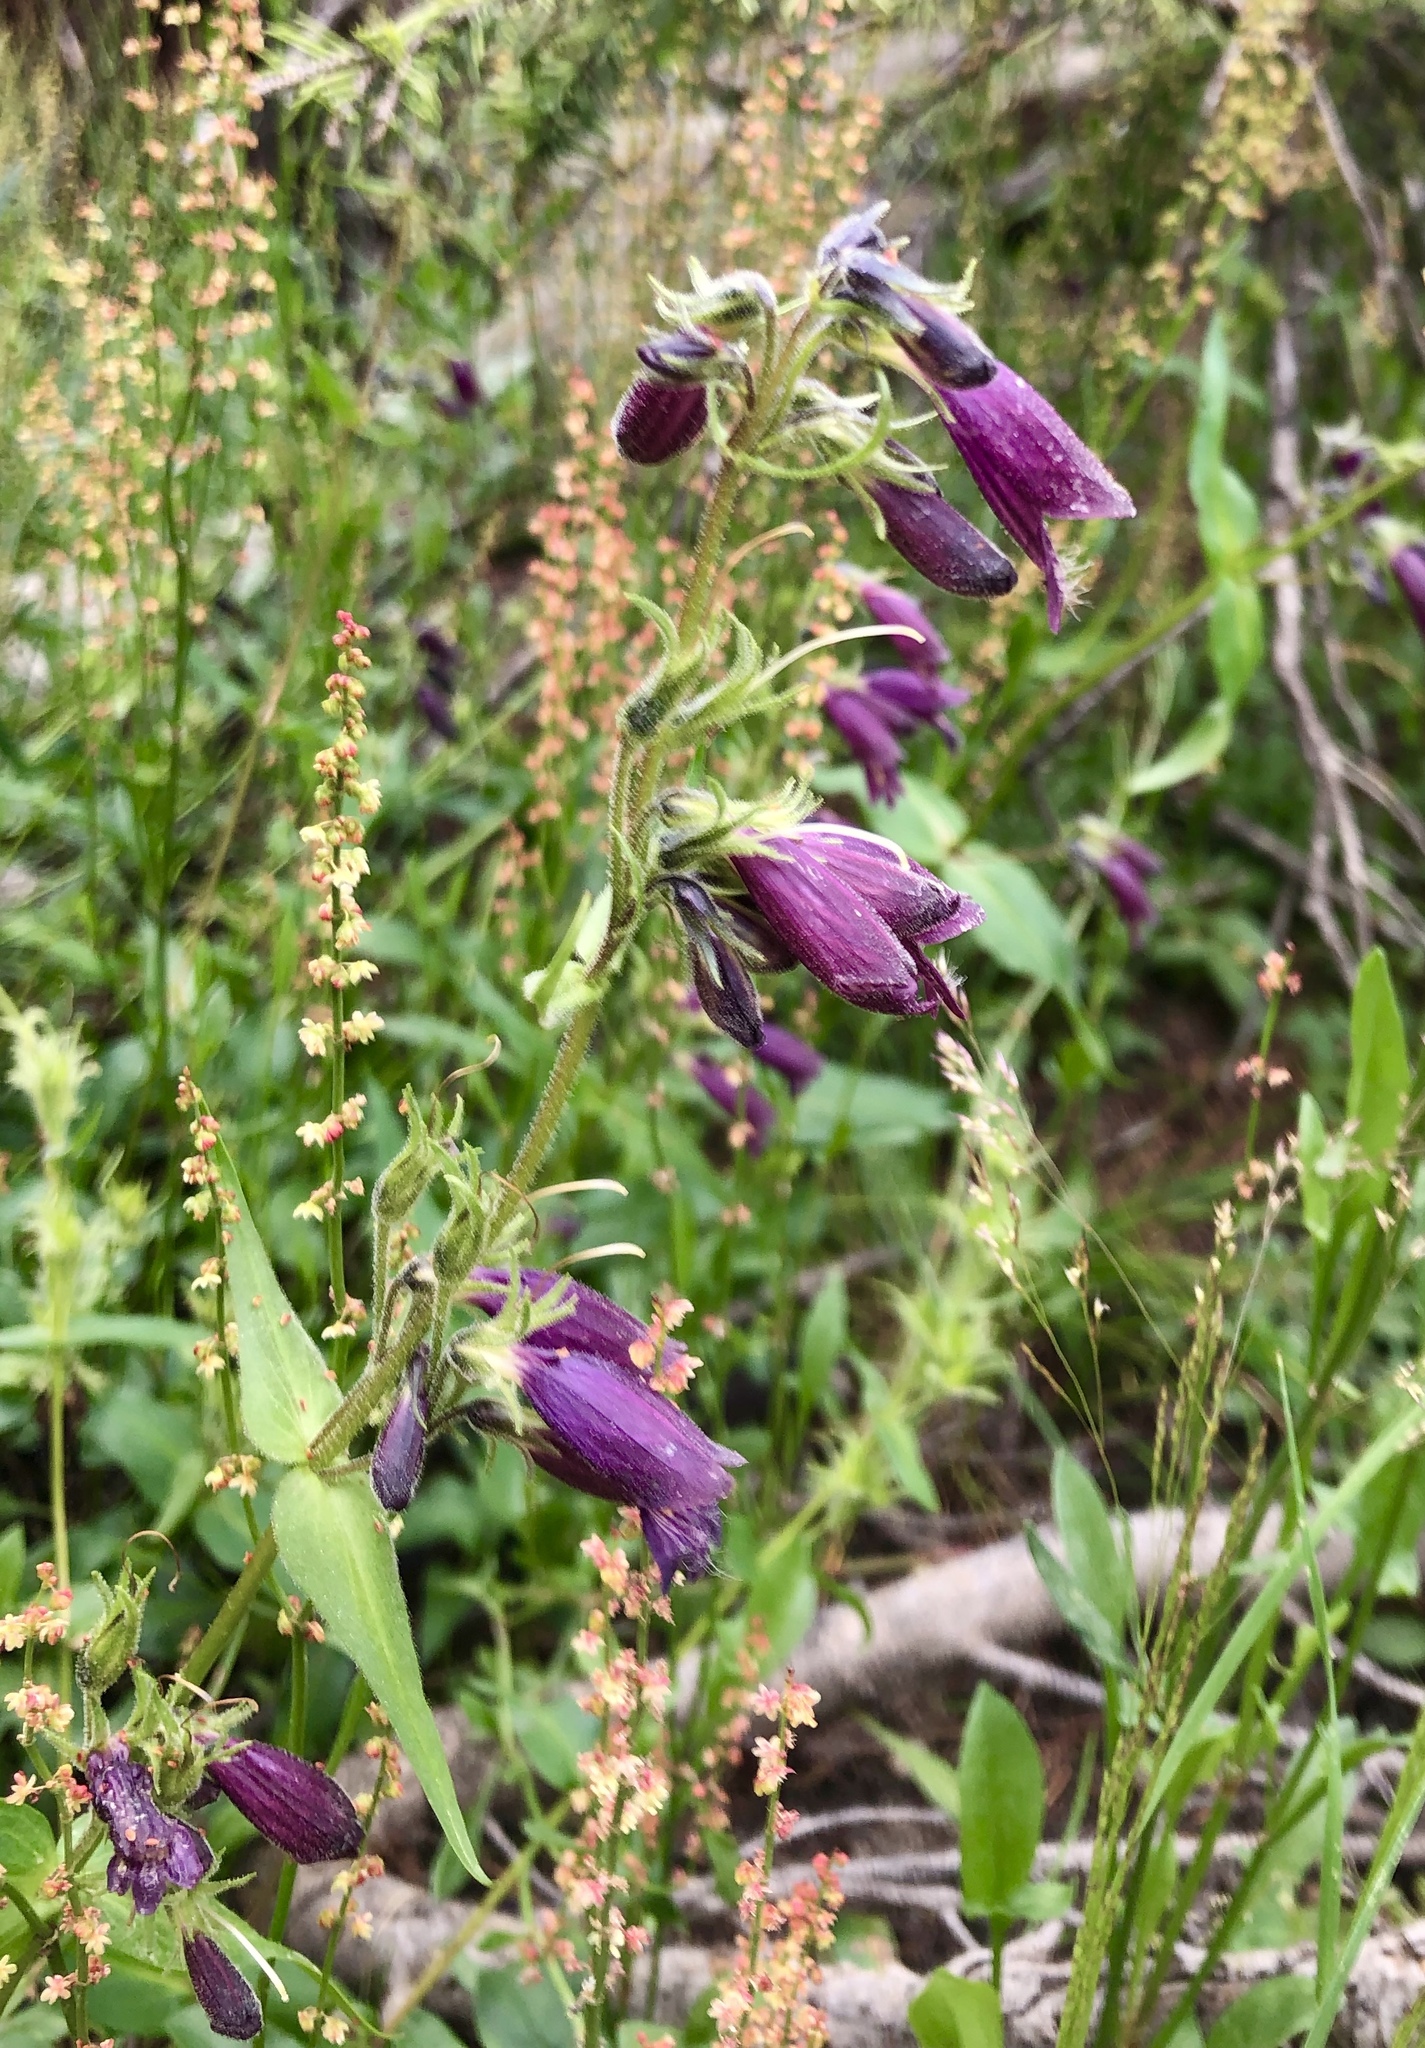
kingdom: Plantae
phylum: Tracheophyta
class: Magnoliopsida
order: Lamiales
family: Plantaginaceae
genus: Penstemon
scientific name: Penstemon whippleanus
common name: Whipple's penstemon
